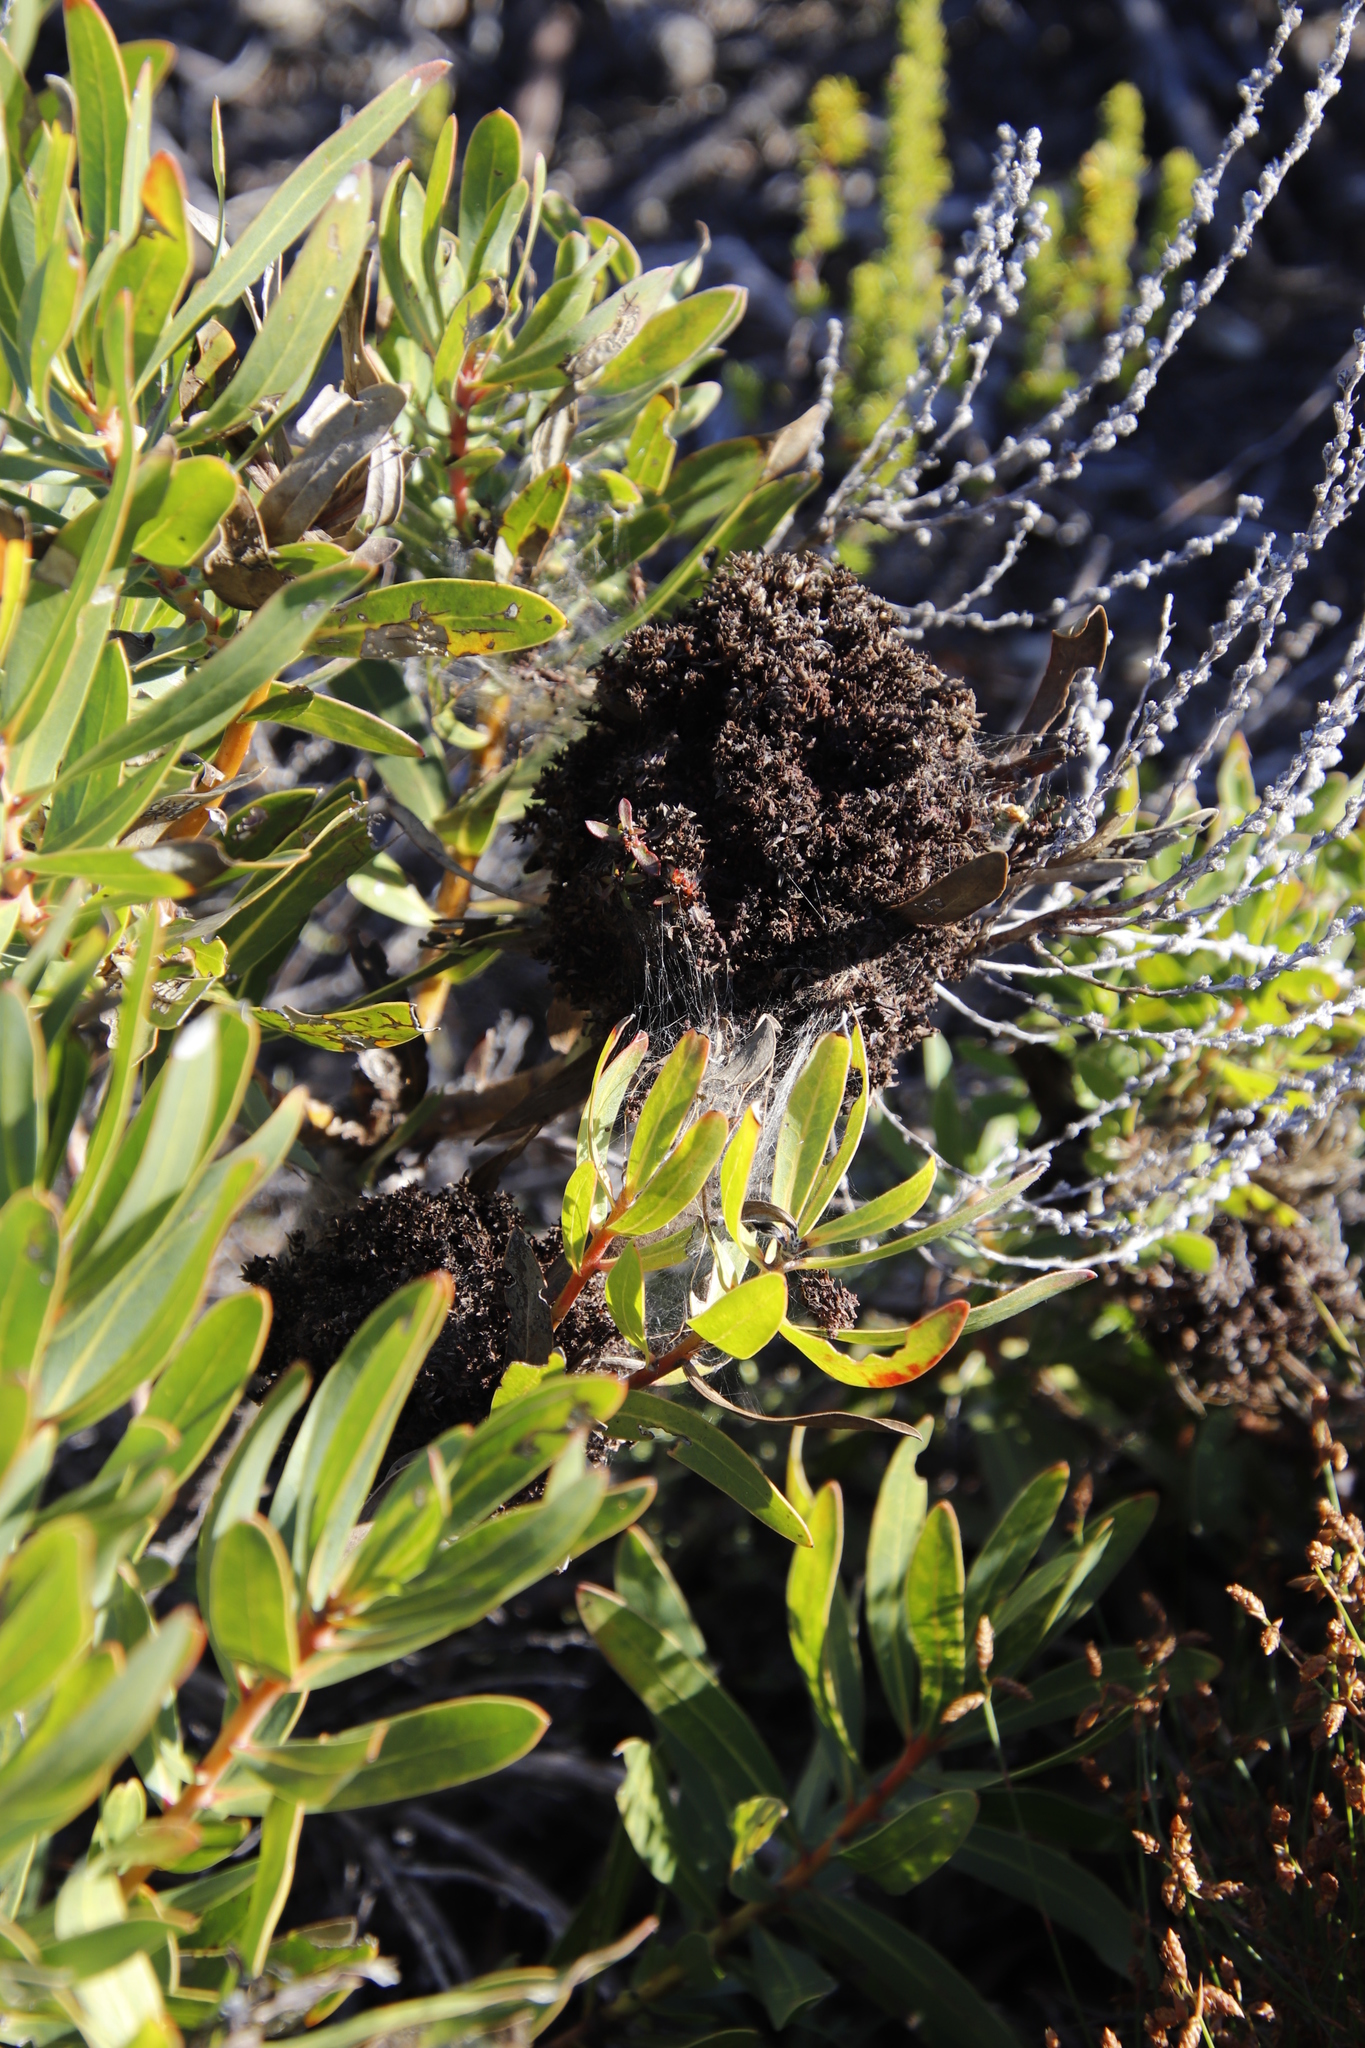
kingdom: Bacteria
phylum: Firmicutes
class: Bacilli
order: Acholeplasmatales
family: Acholeplasmataceae
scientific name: Acholeplasmataceae
